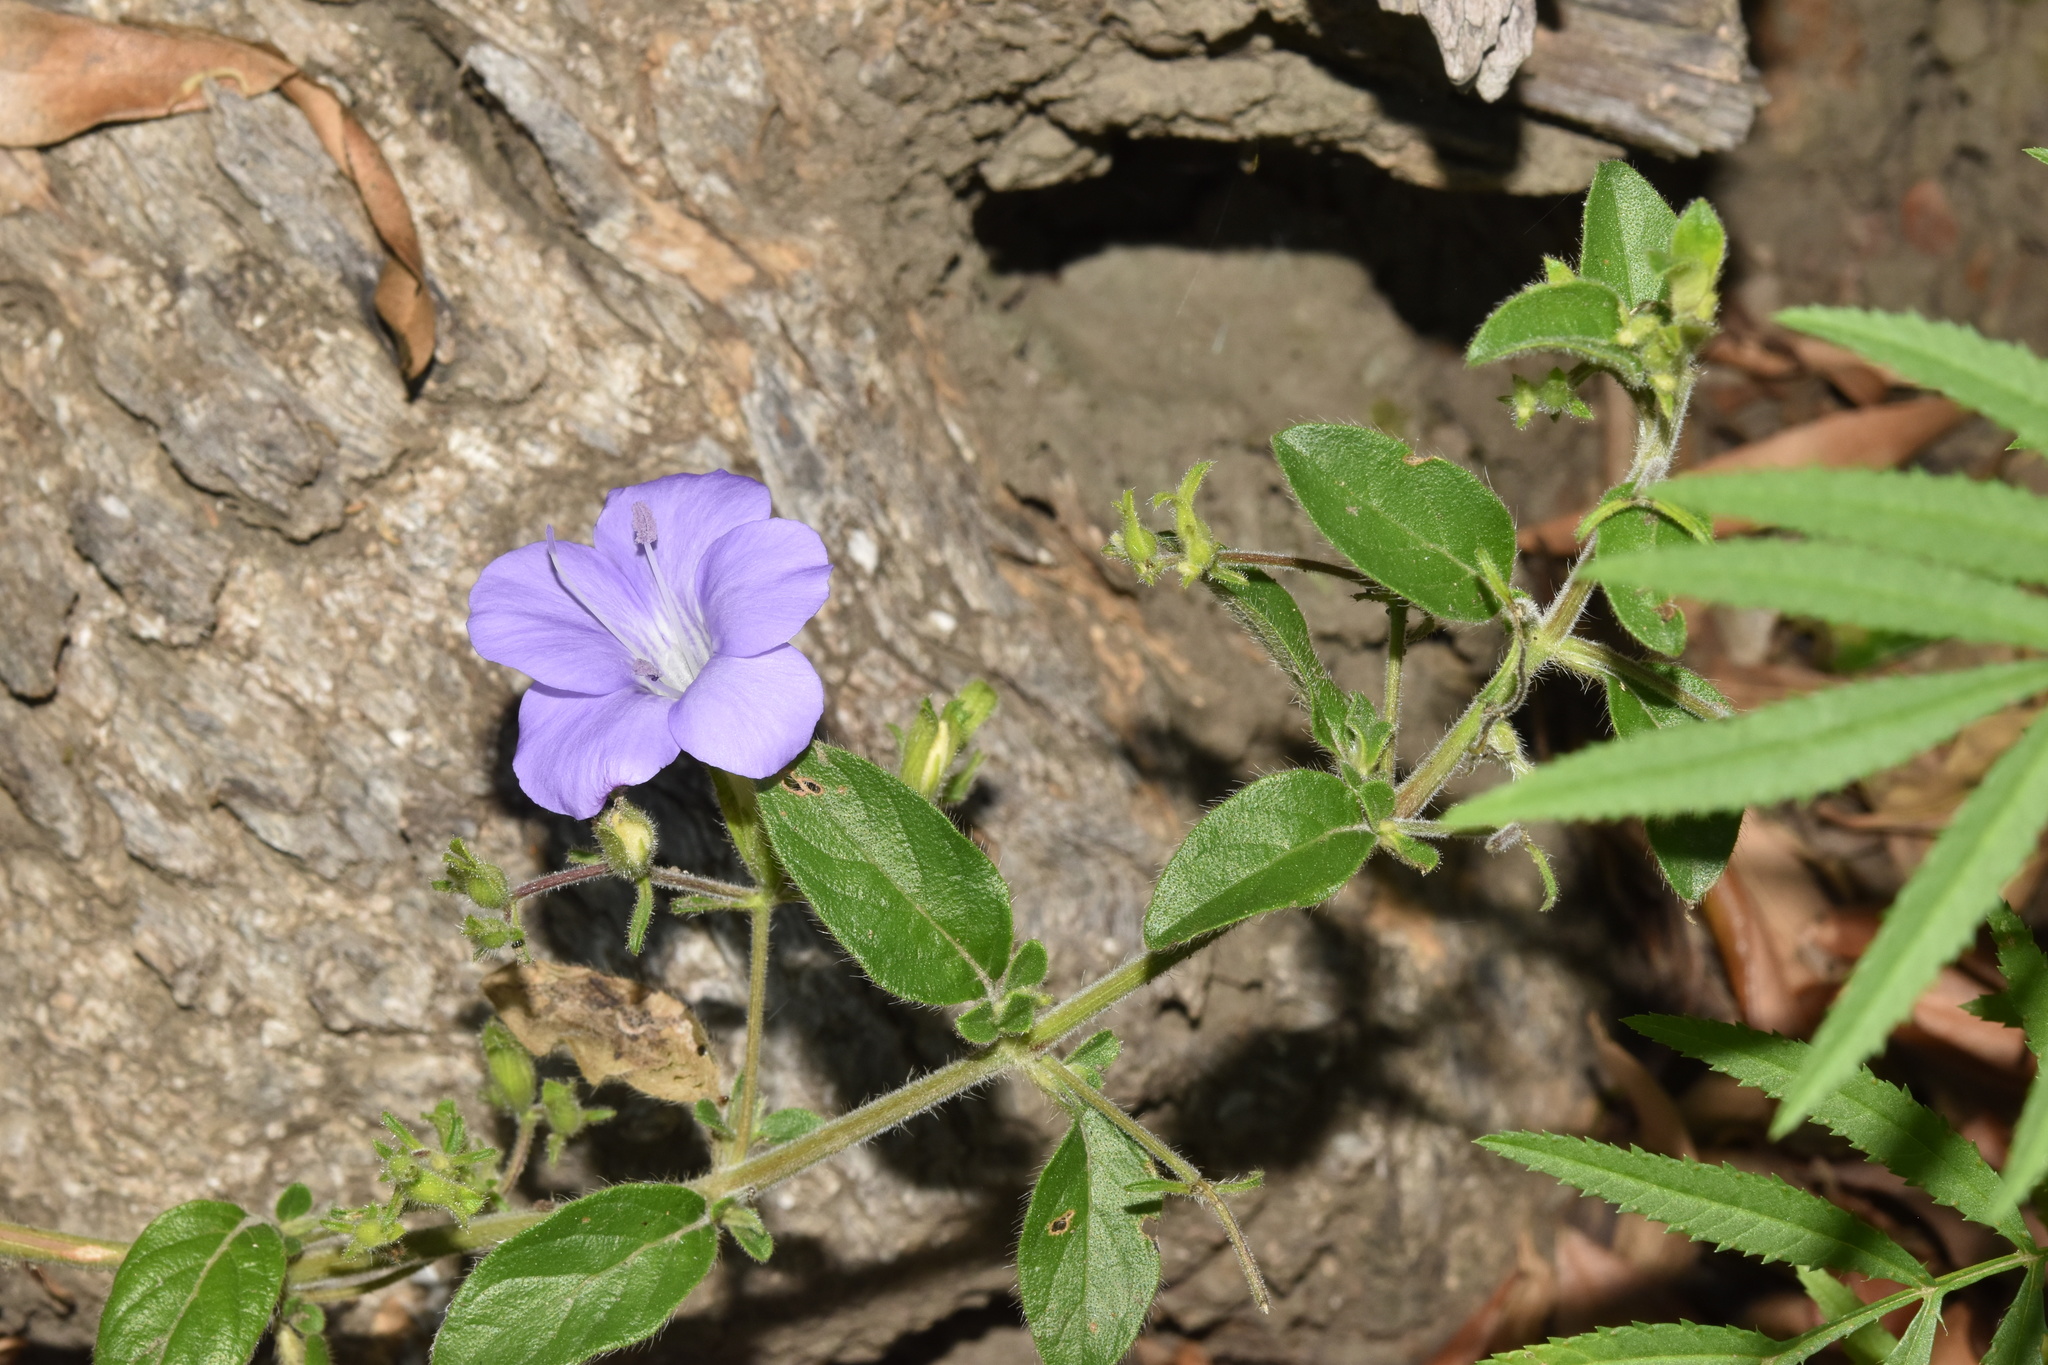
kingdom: Plantae
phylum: Tracheophyta
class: Magnoliopsida
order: Lamiales
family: Acanthaceae
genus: Barleria
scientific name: Barleria obtusa
